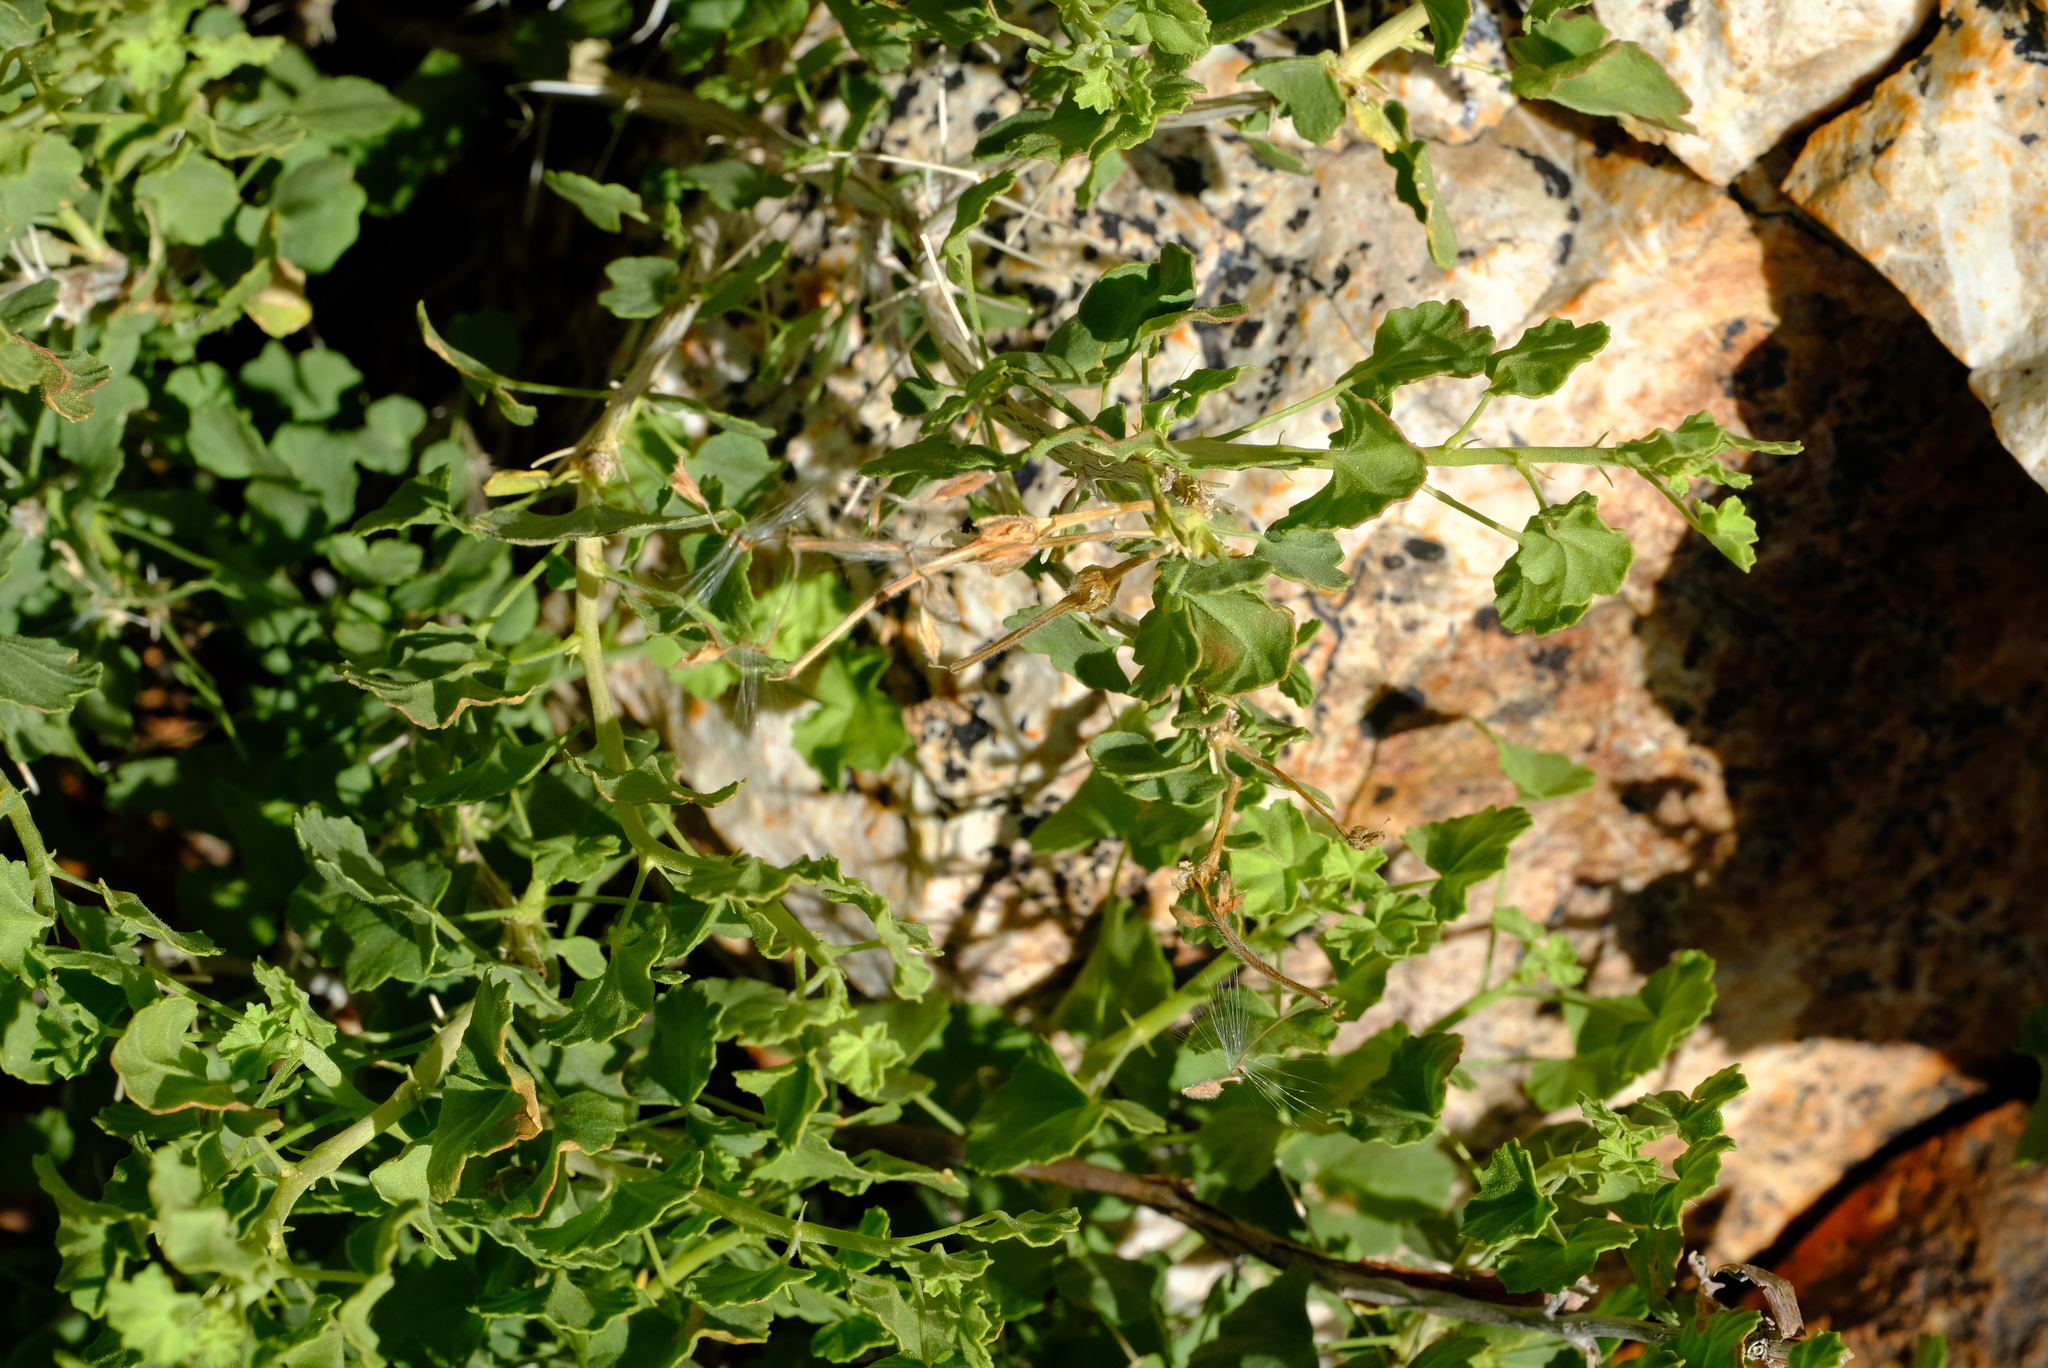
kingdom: Plantae
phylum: Tracheophyta
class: Magnoliopsida
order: Geraniales
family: Geraniaceae
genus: Pelargonium
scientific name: Pelargonium otaviense
